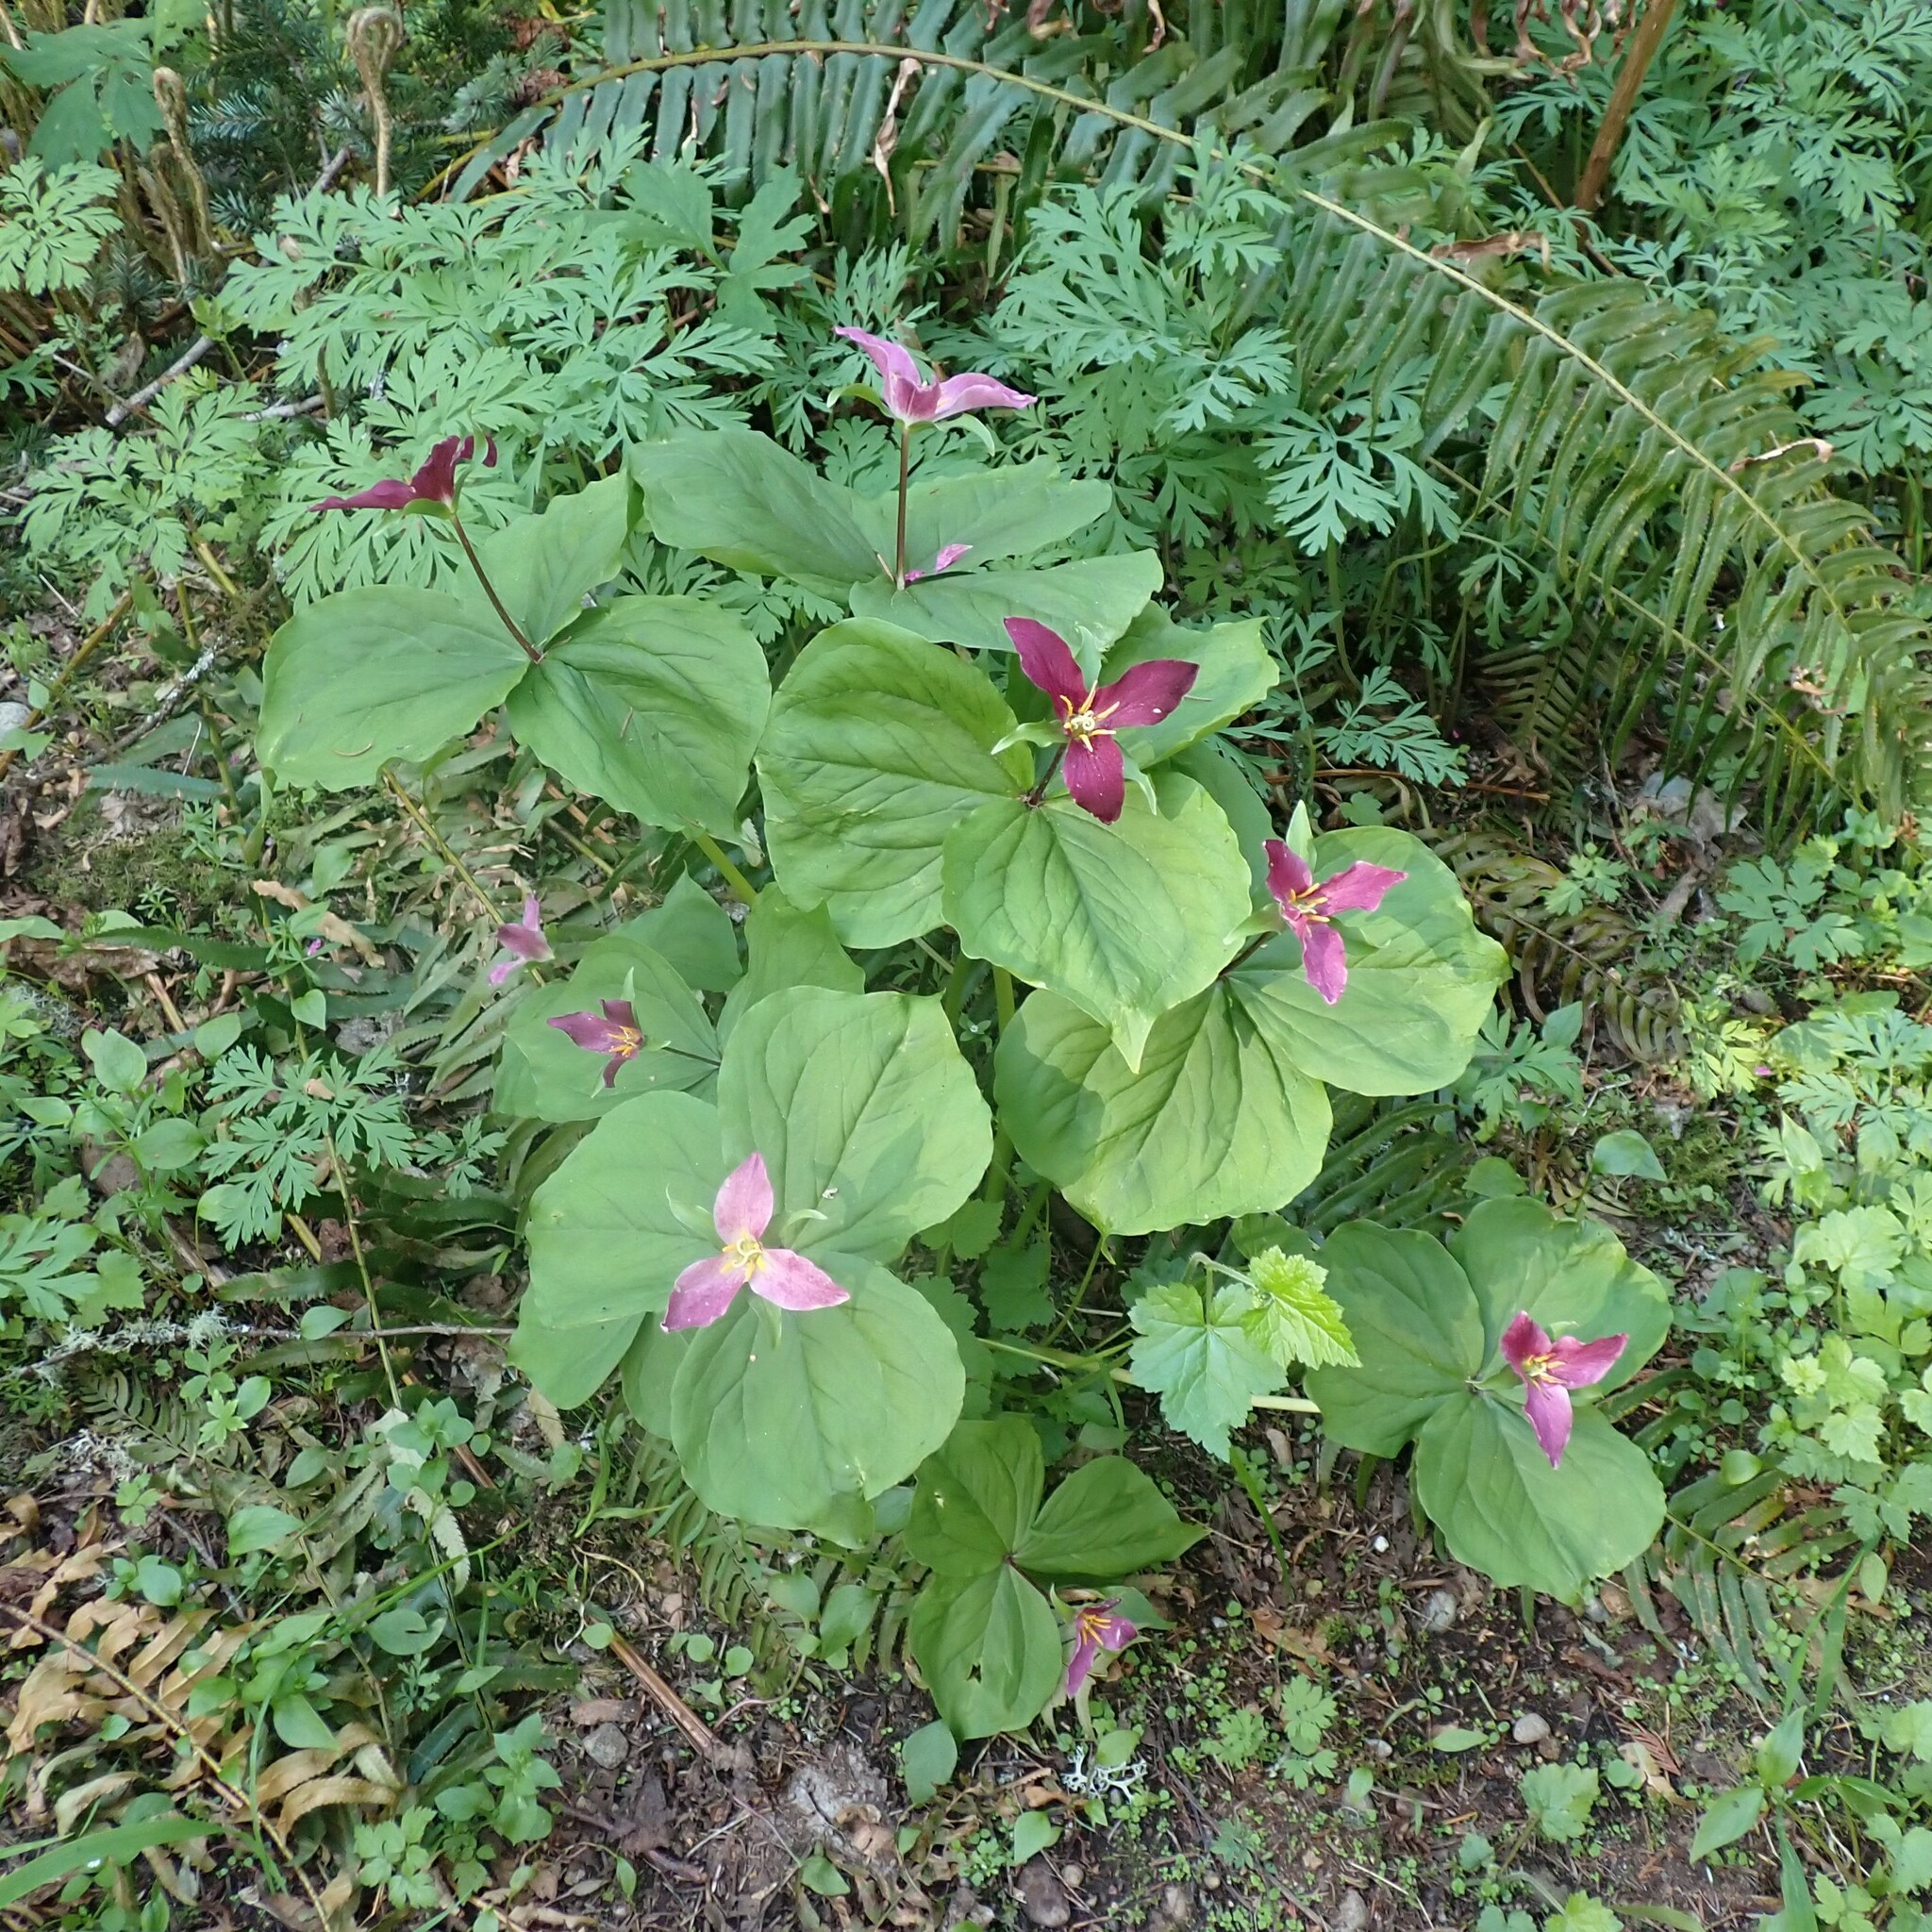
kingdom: Plantae
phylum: Tracheophyta
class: Liliopsida
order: Liliales
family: Melanthiaceae
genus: Trillium
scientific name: Trillium ovatum
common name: Pacific trillium
